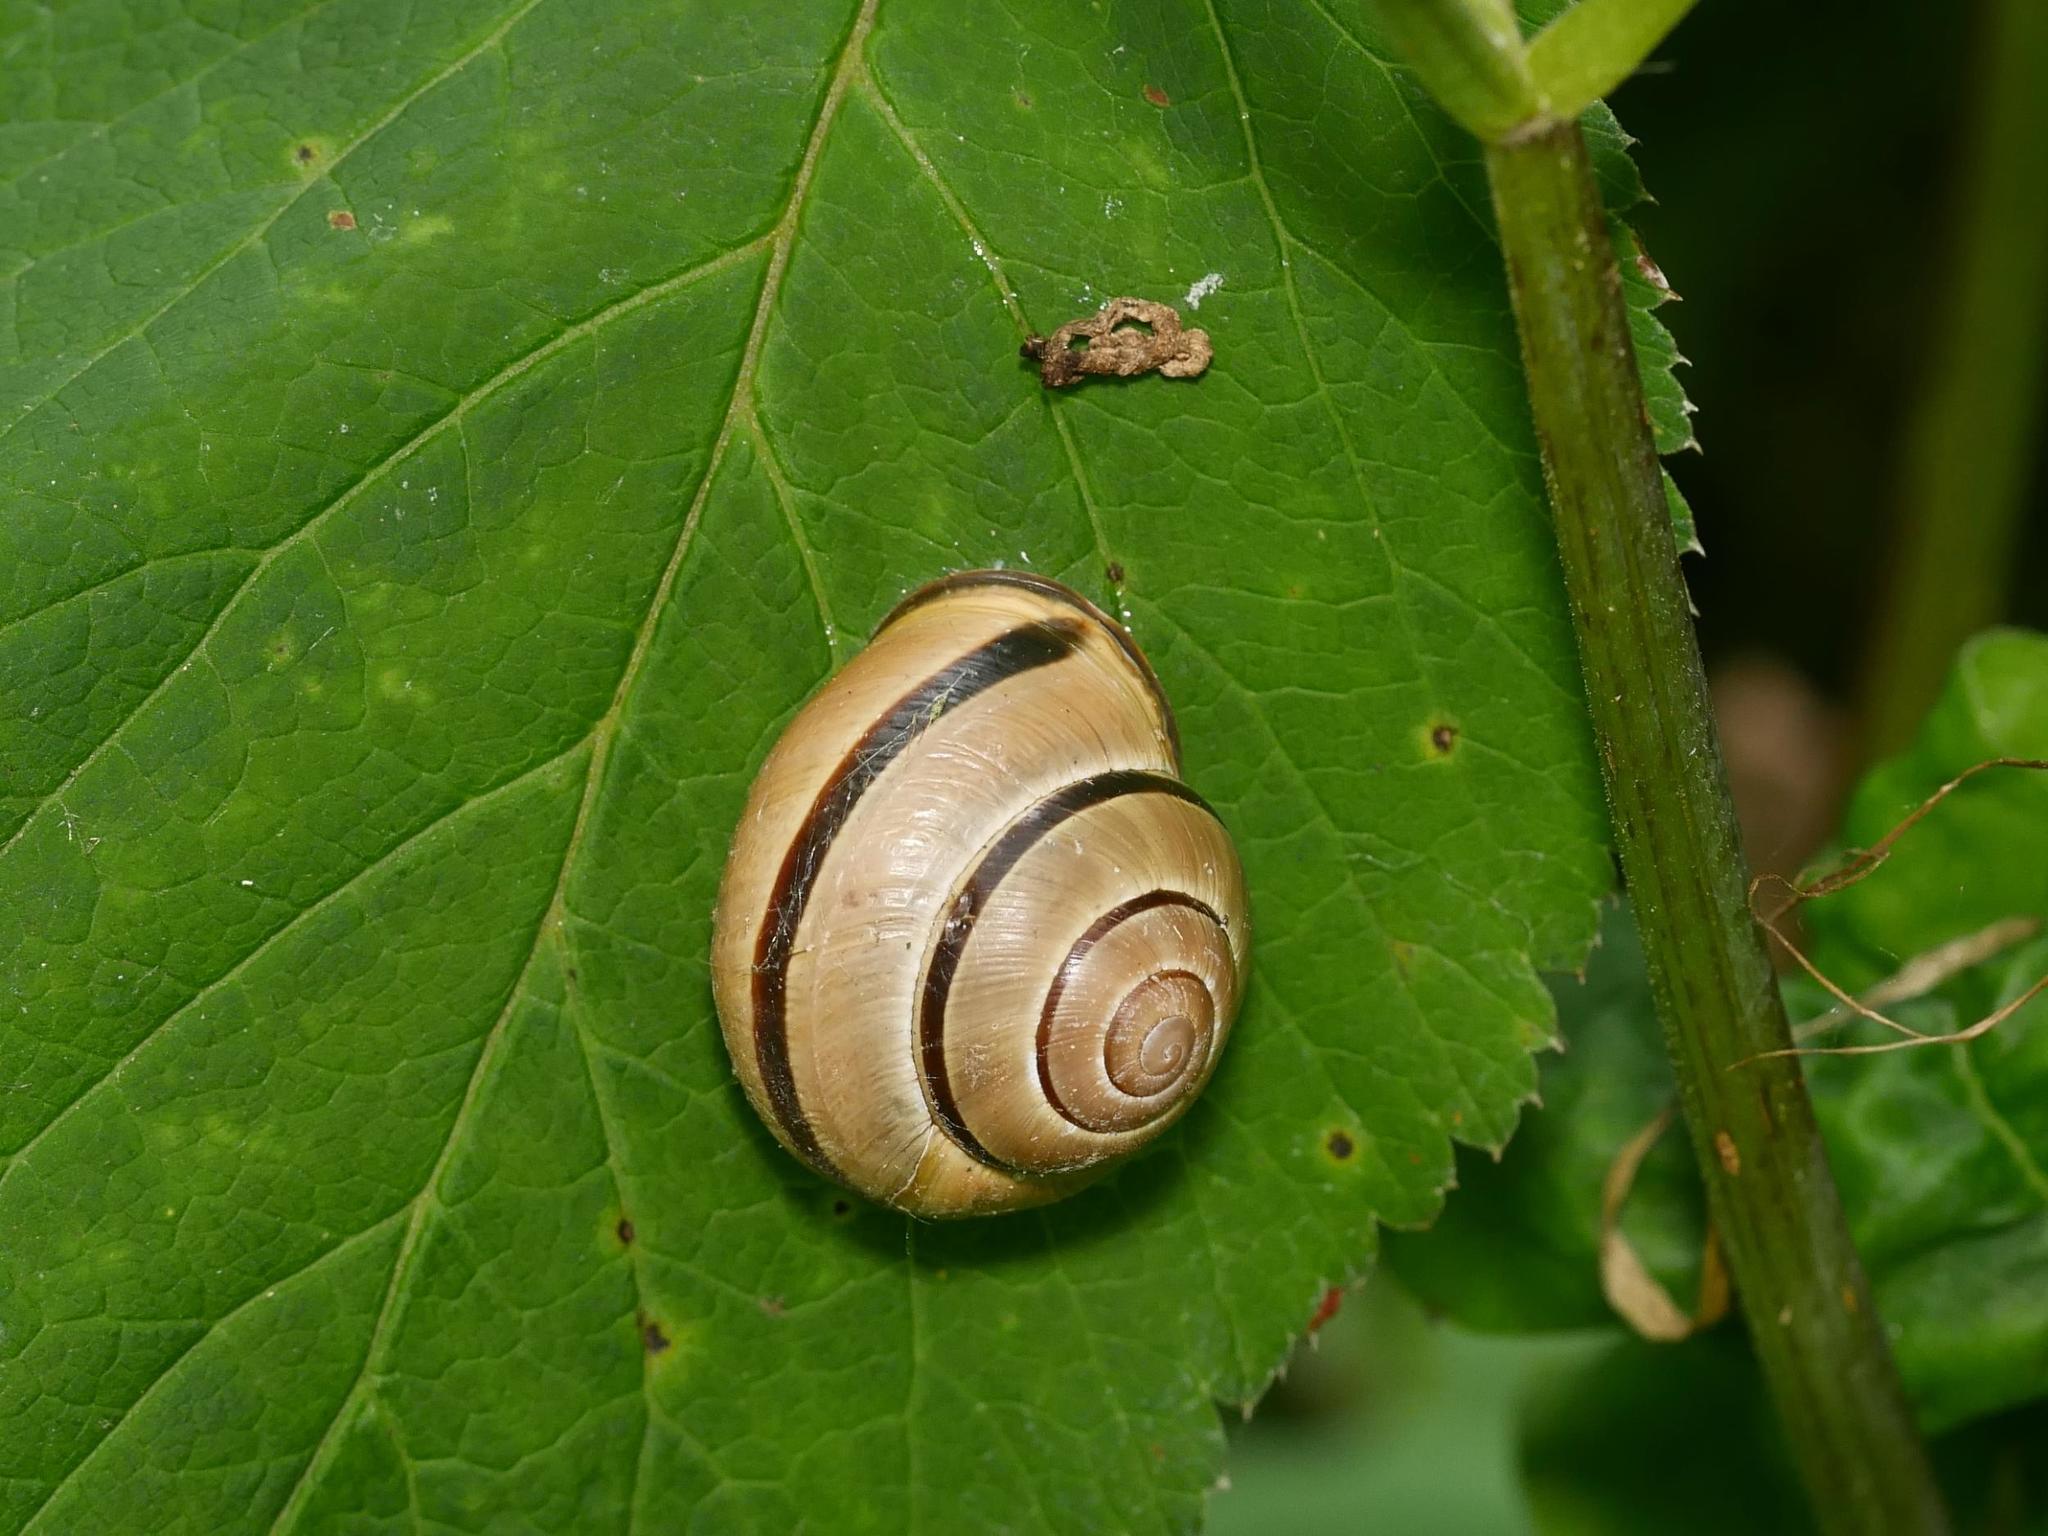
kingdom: Animalia
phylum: Mollusca
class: Gastropoda
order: Stylommatophora
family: Helicidae
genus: Cepaea
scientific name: Cepaea nemoralis
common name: Grovesnail
